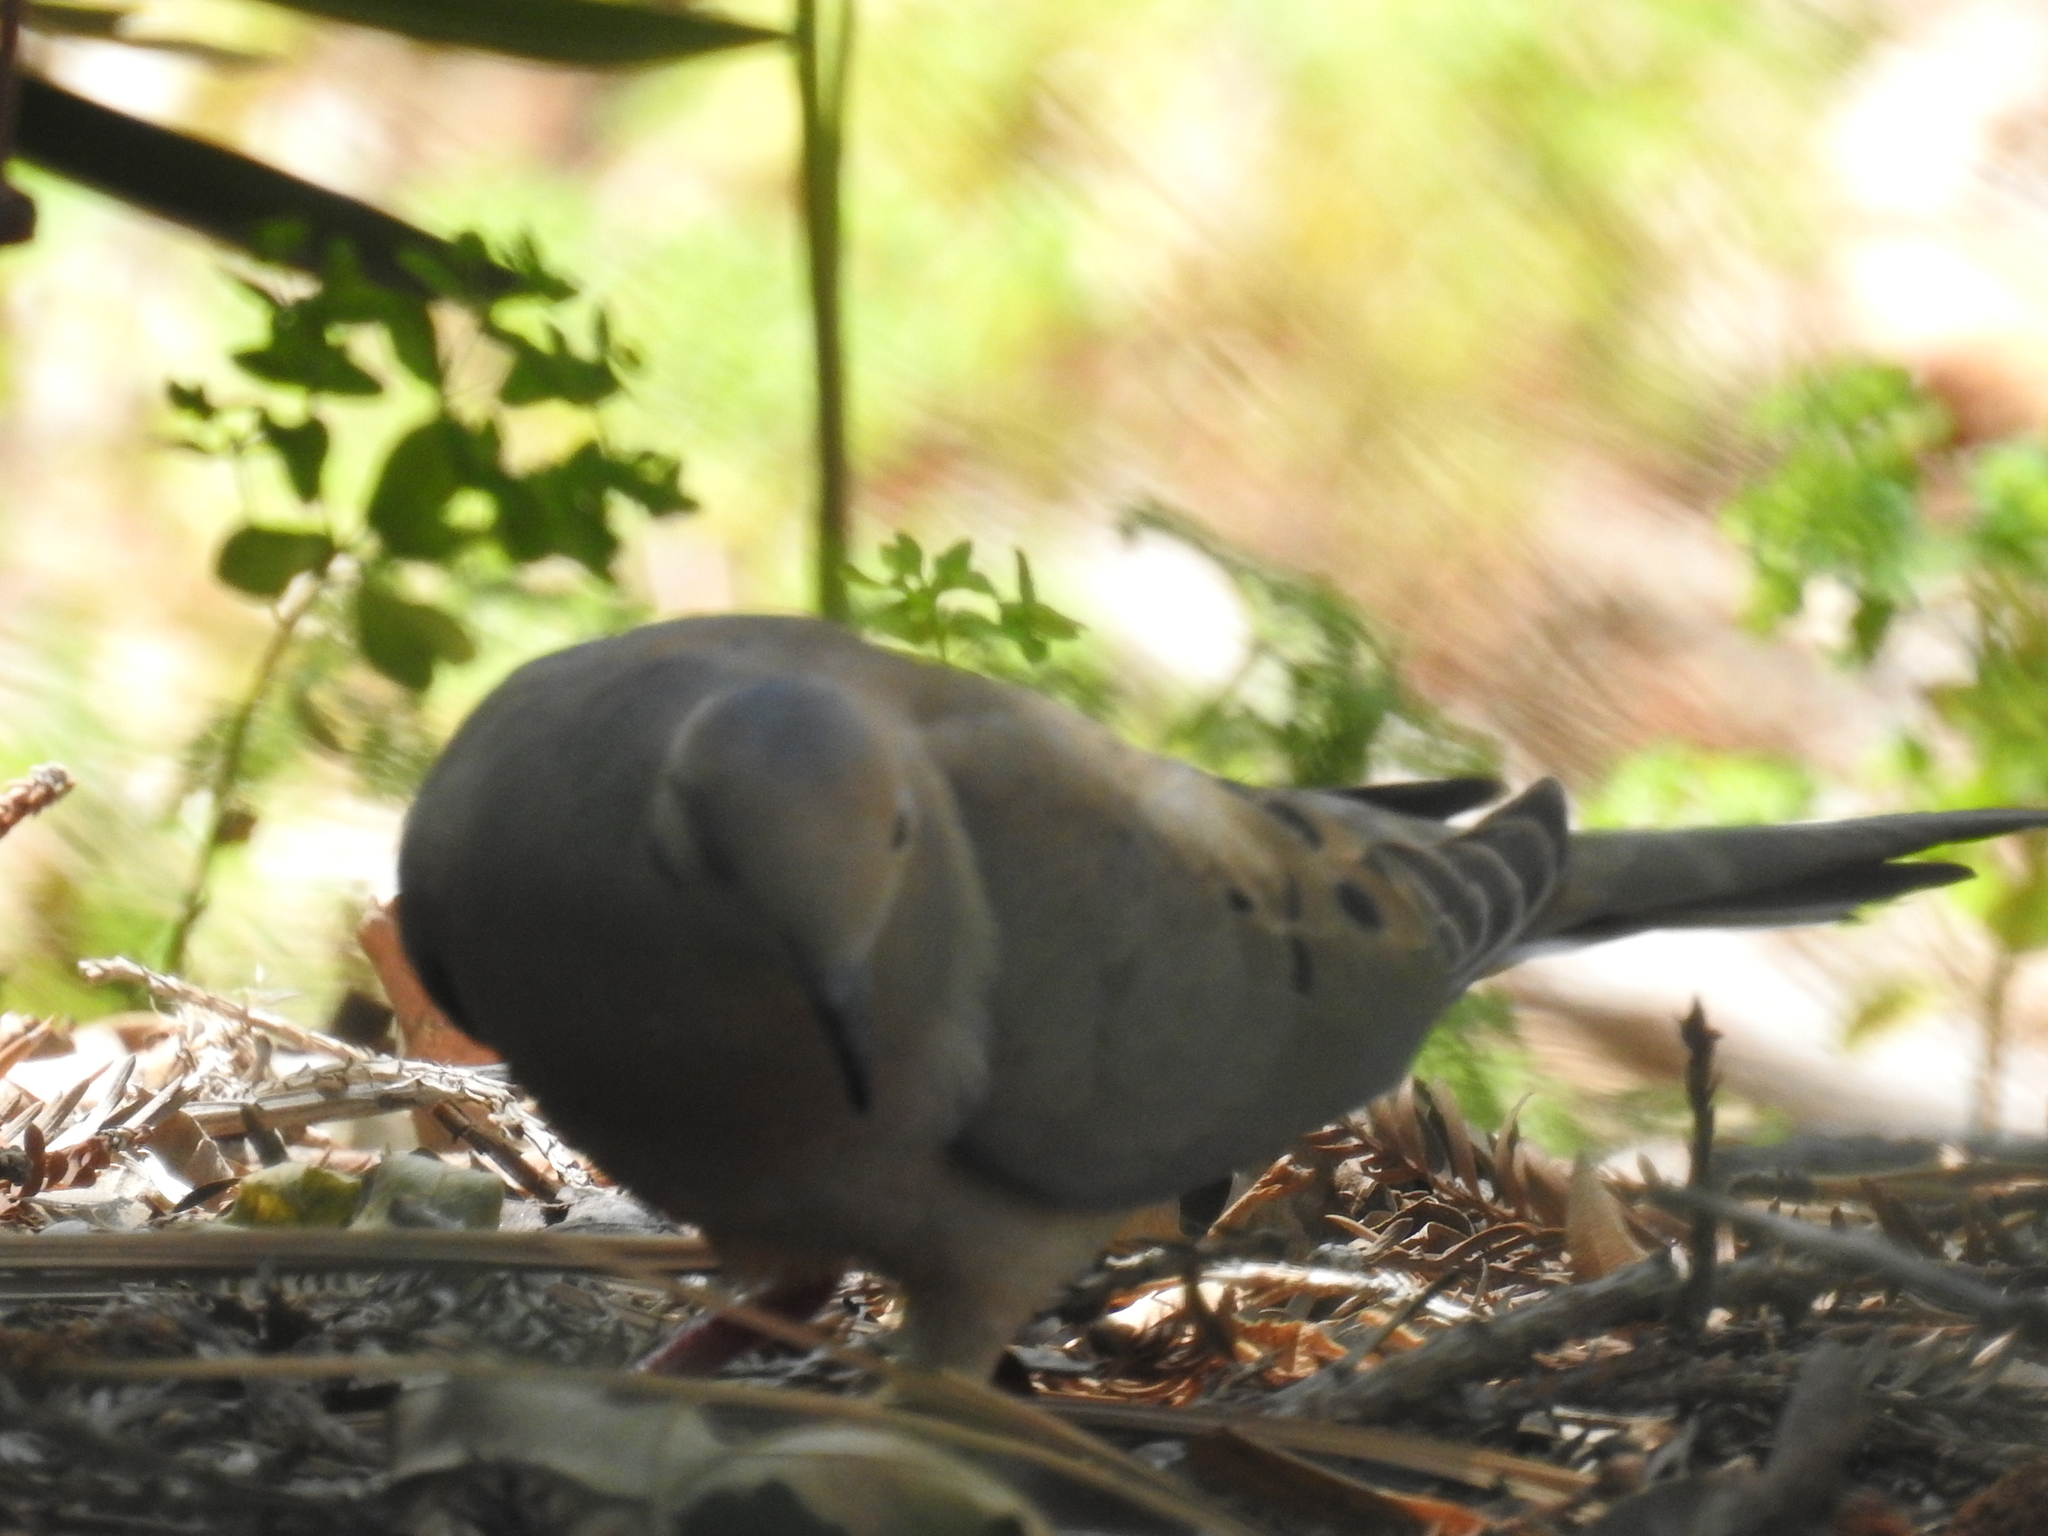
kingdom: Animalia
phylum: Chordata
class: Aves
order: Columbiformes
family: Columbidae
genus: Zenaida
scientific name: Zenaida macroura
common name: Mourning dove
